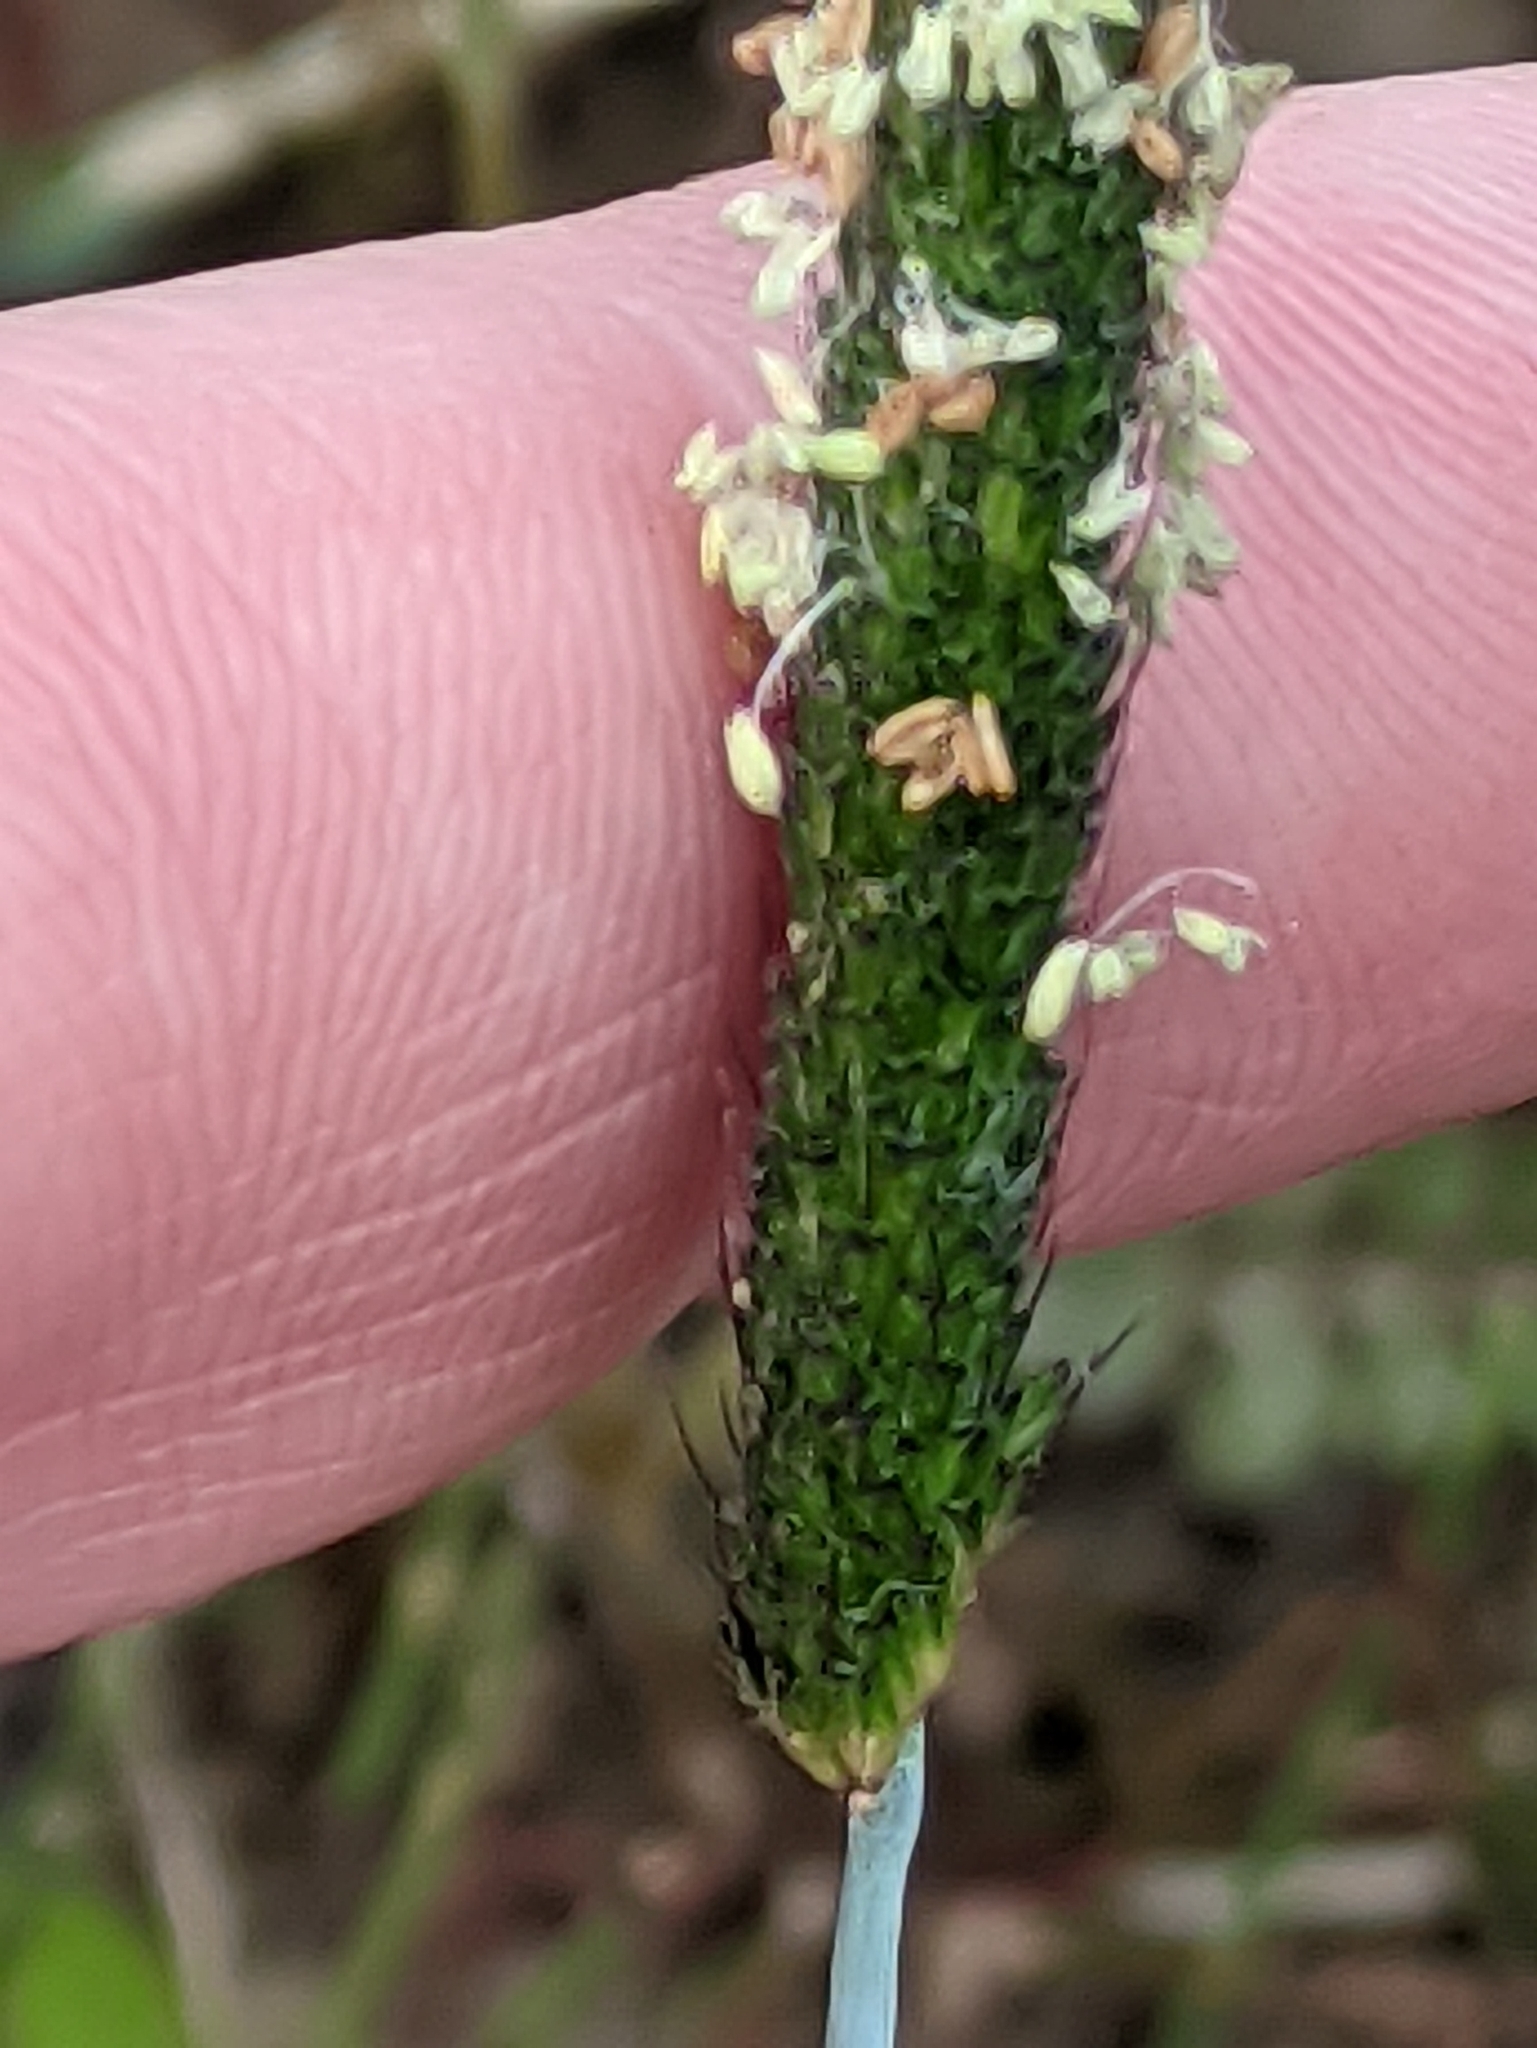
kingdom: Plantae
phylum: Tracheophyta
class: Liliopsida
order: Poales
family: Poaceae
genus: Alopecurus
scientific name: Alopecurus geniculatus
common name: Water foxtail
